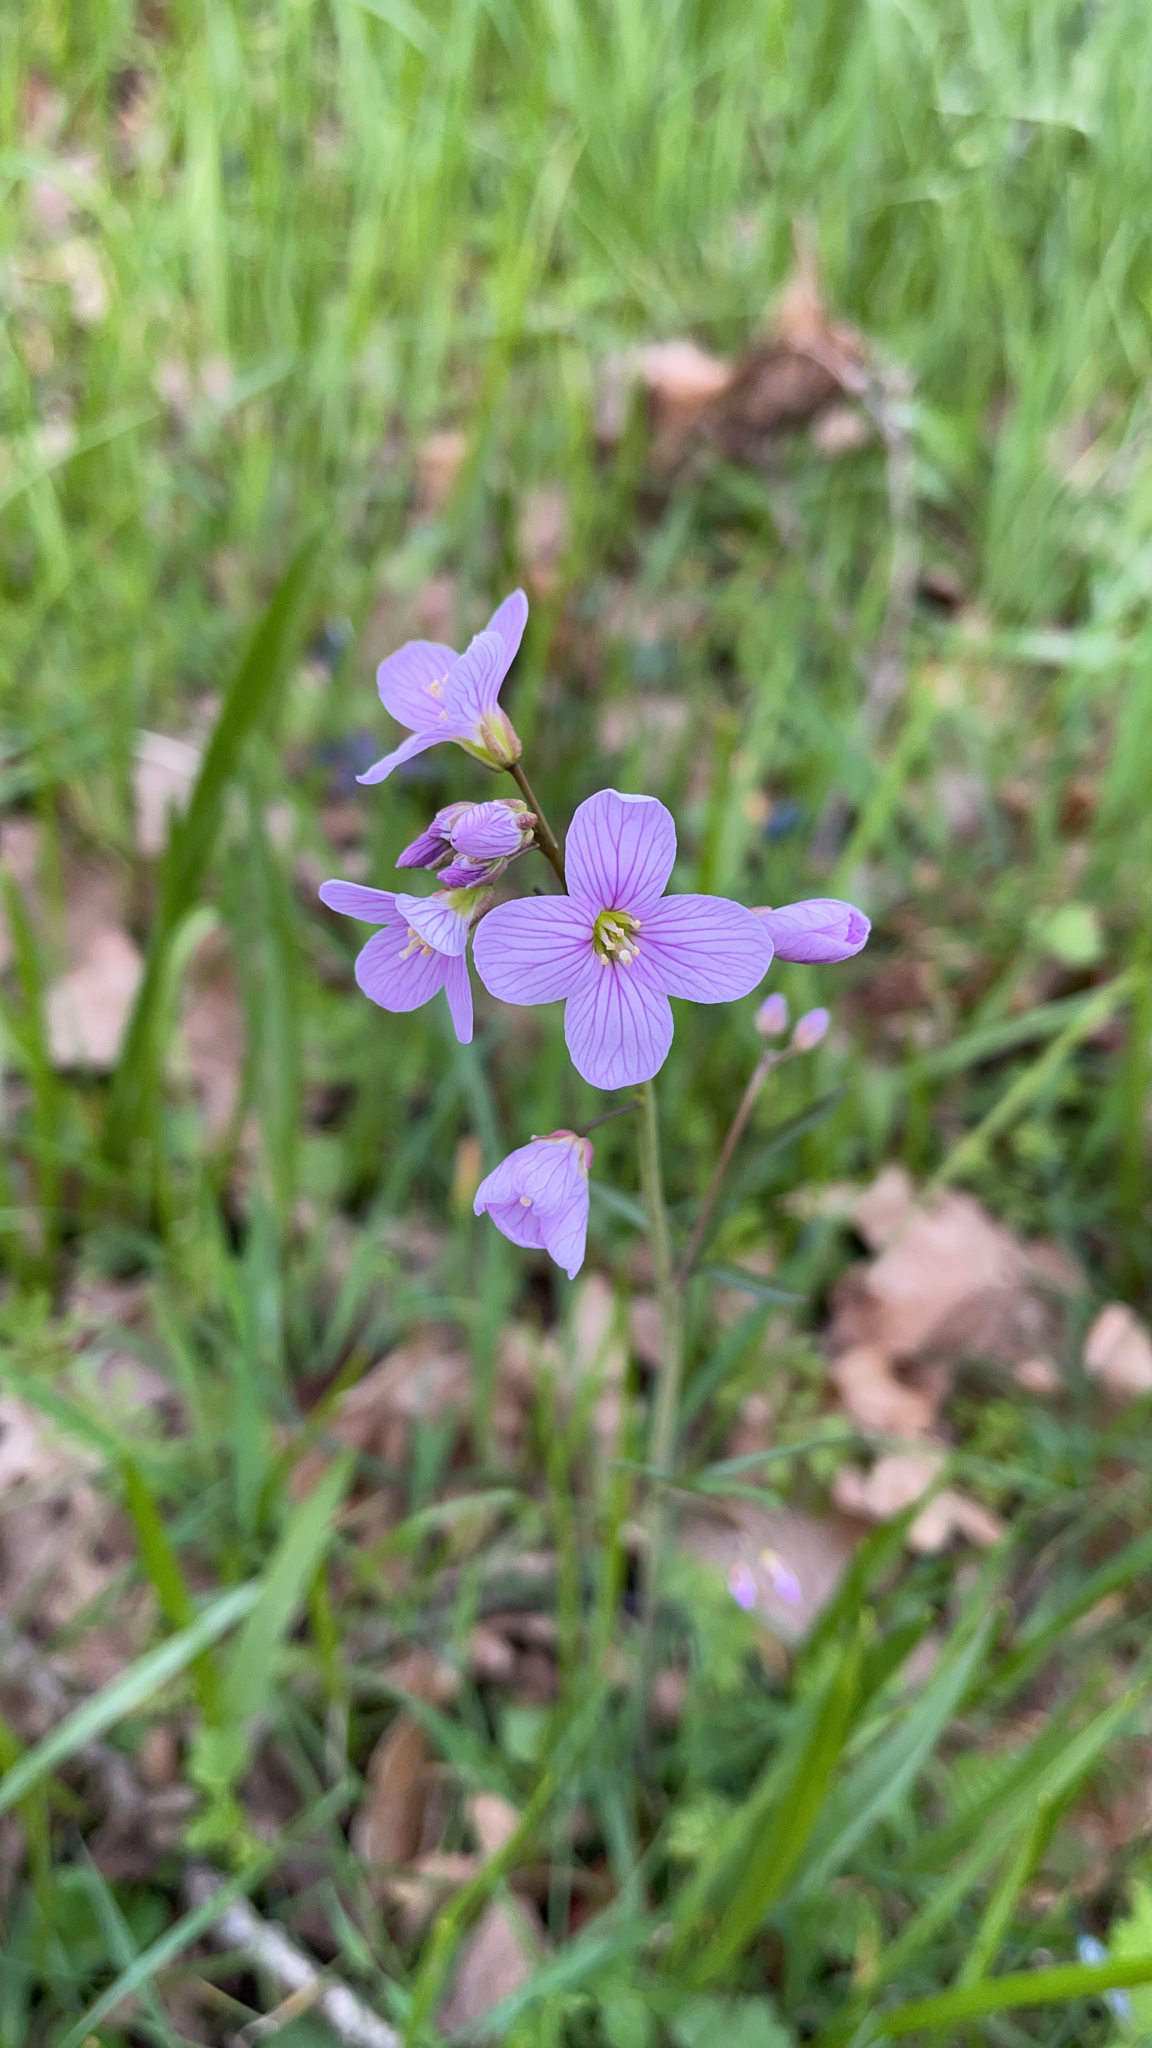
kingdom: Plantae
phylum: Tracheophyta
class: Magnoliopsida
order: Brassicales
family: Brassicaceae
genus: Cardamine
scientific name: Cardamine nuttallii
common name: Nuttall's toothwort
